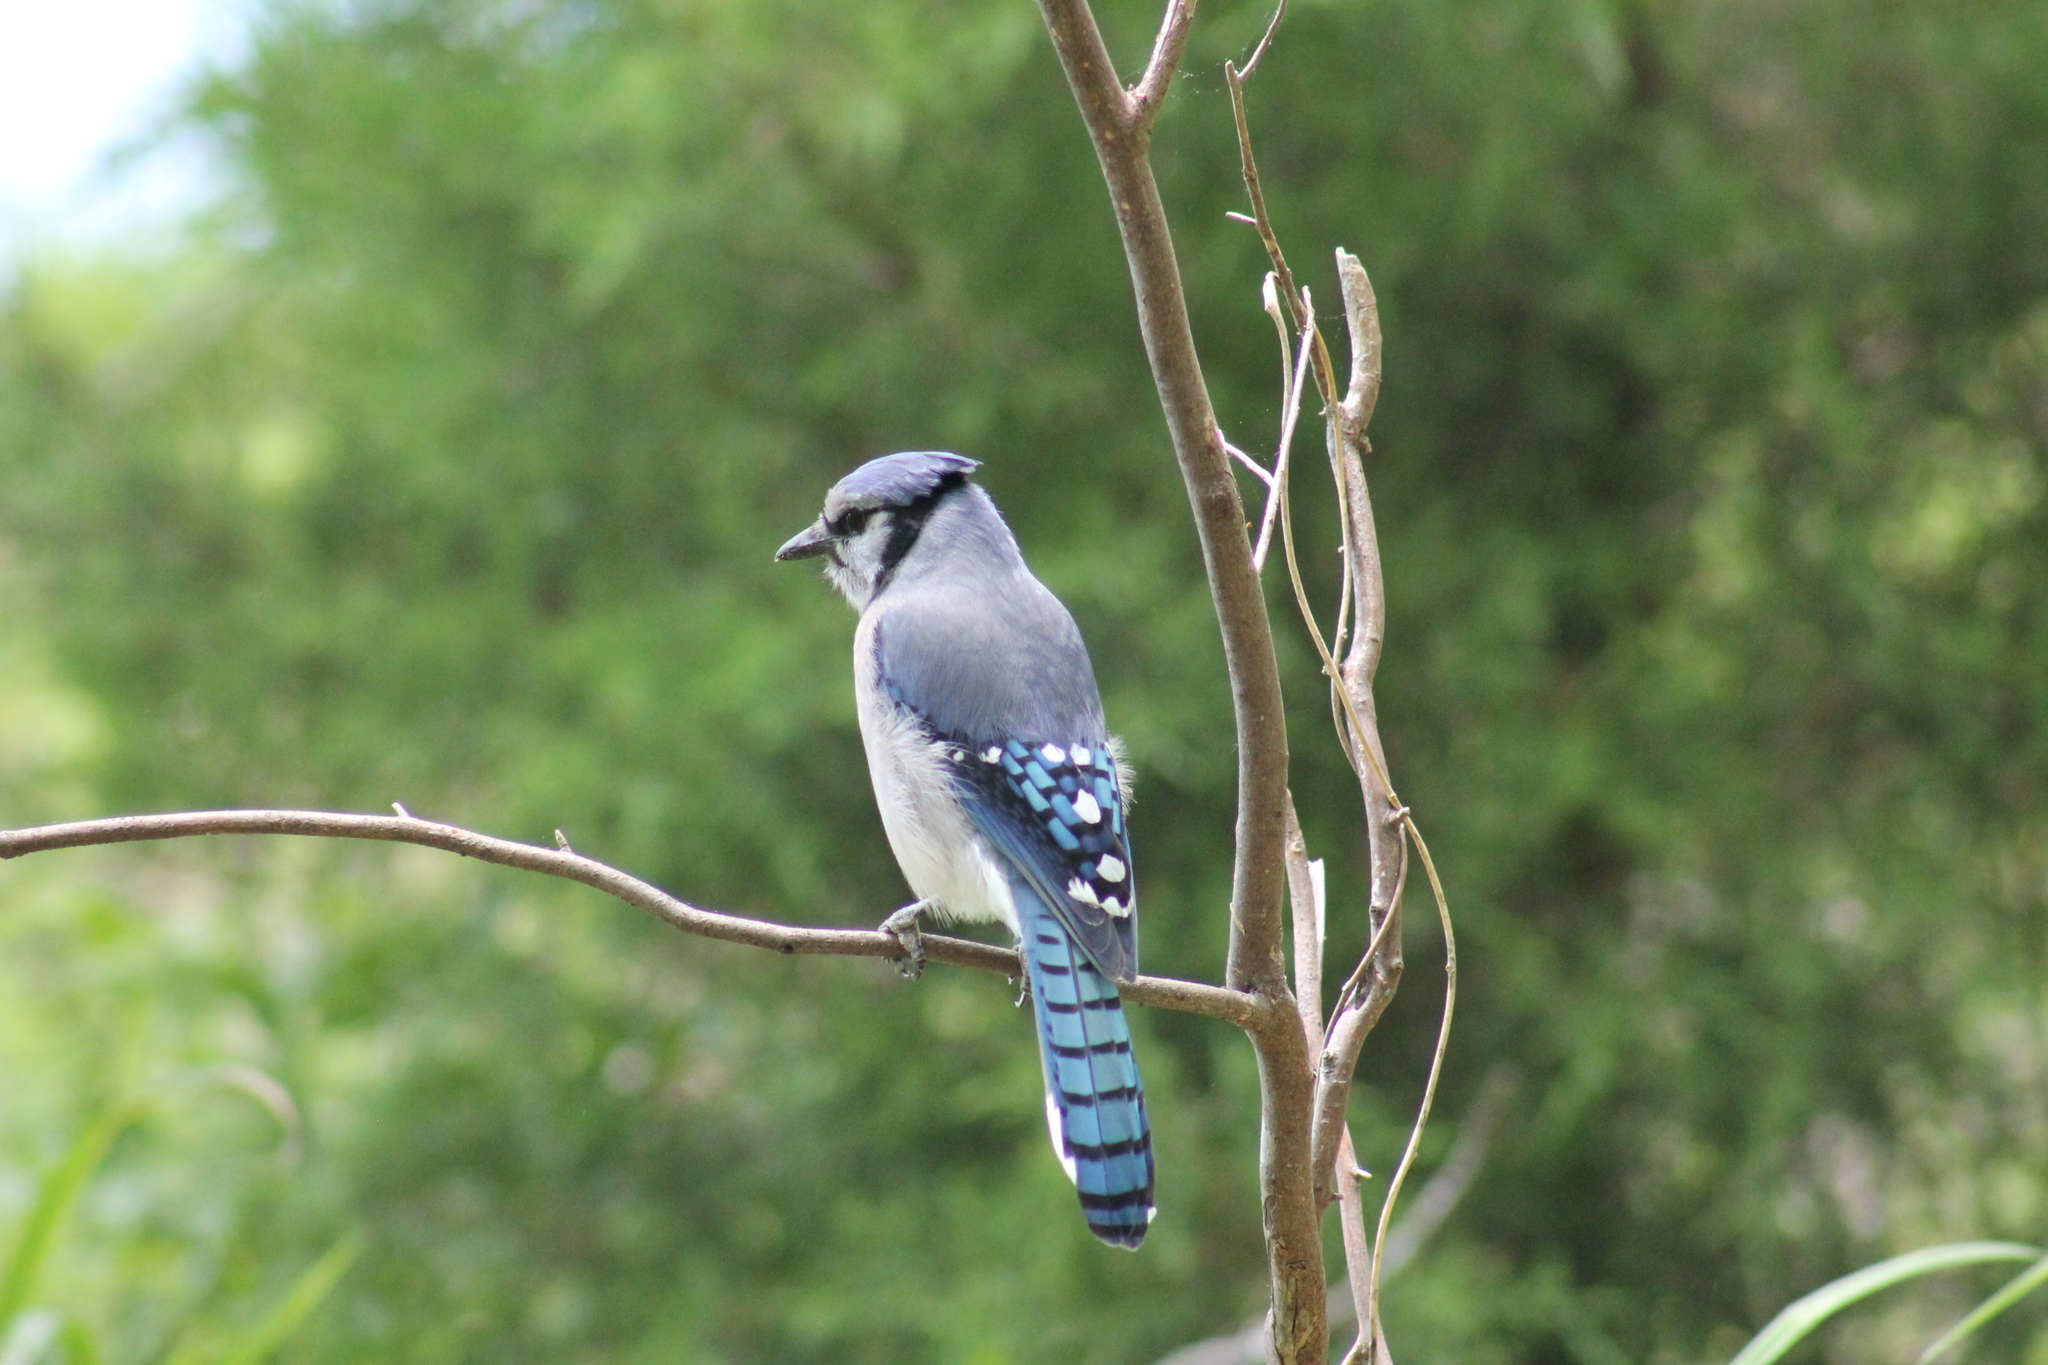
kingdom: Animalia
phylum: Chordata
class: Aves
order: Passeriformes
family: Corvidae
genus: Cyanocitta
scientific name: Cyanocitta cristata
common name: Blue jay
